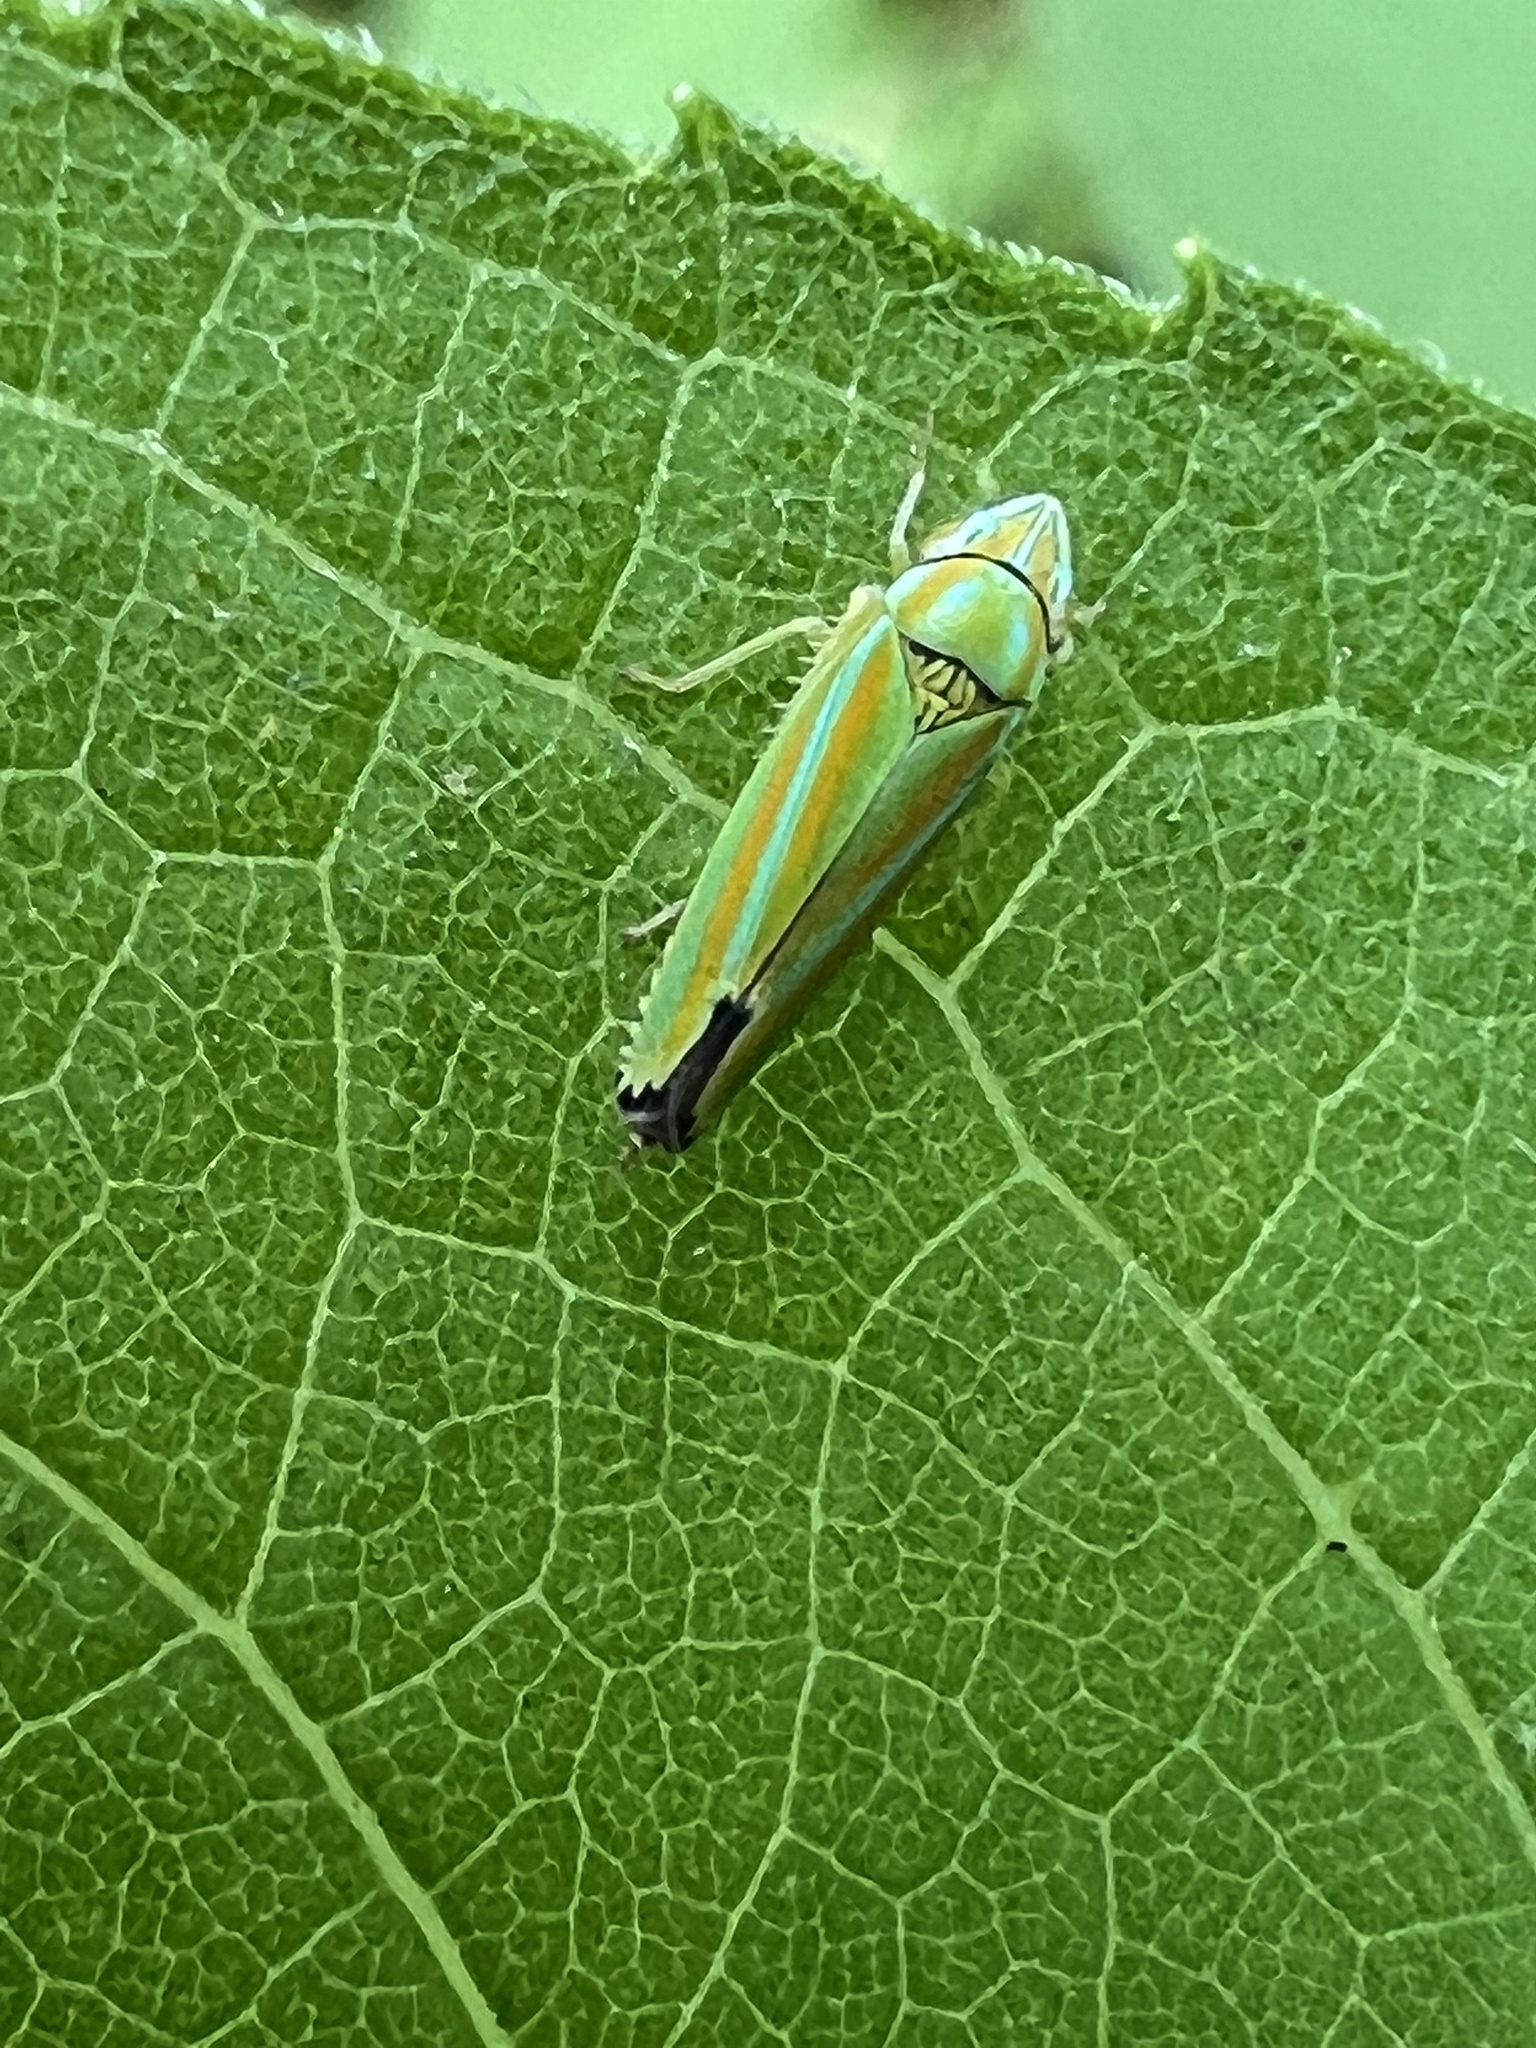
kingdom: Animalia
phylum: Arthropoda
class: Insecta
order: Hemiptera
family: Cicadellidae
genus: Graphocephala
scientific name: Graphocephala versuta
